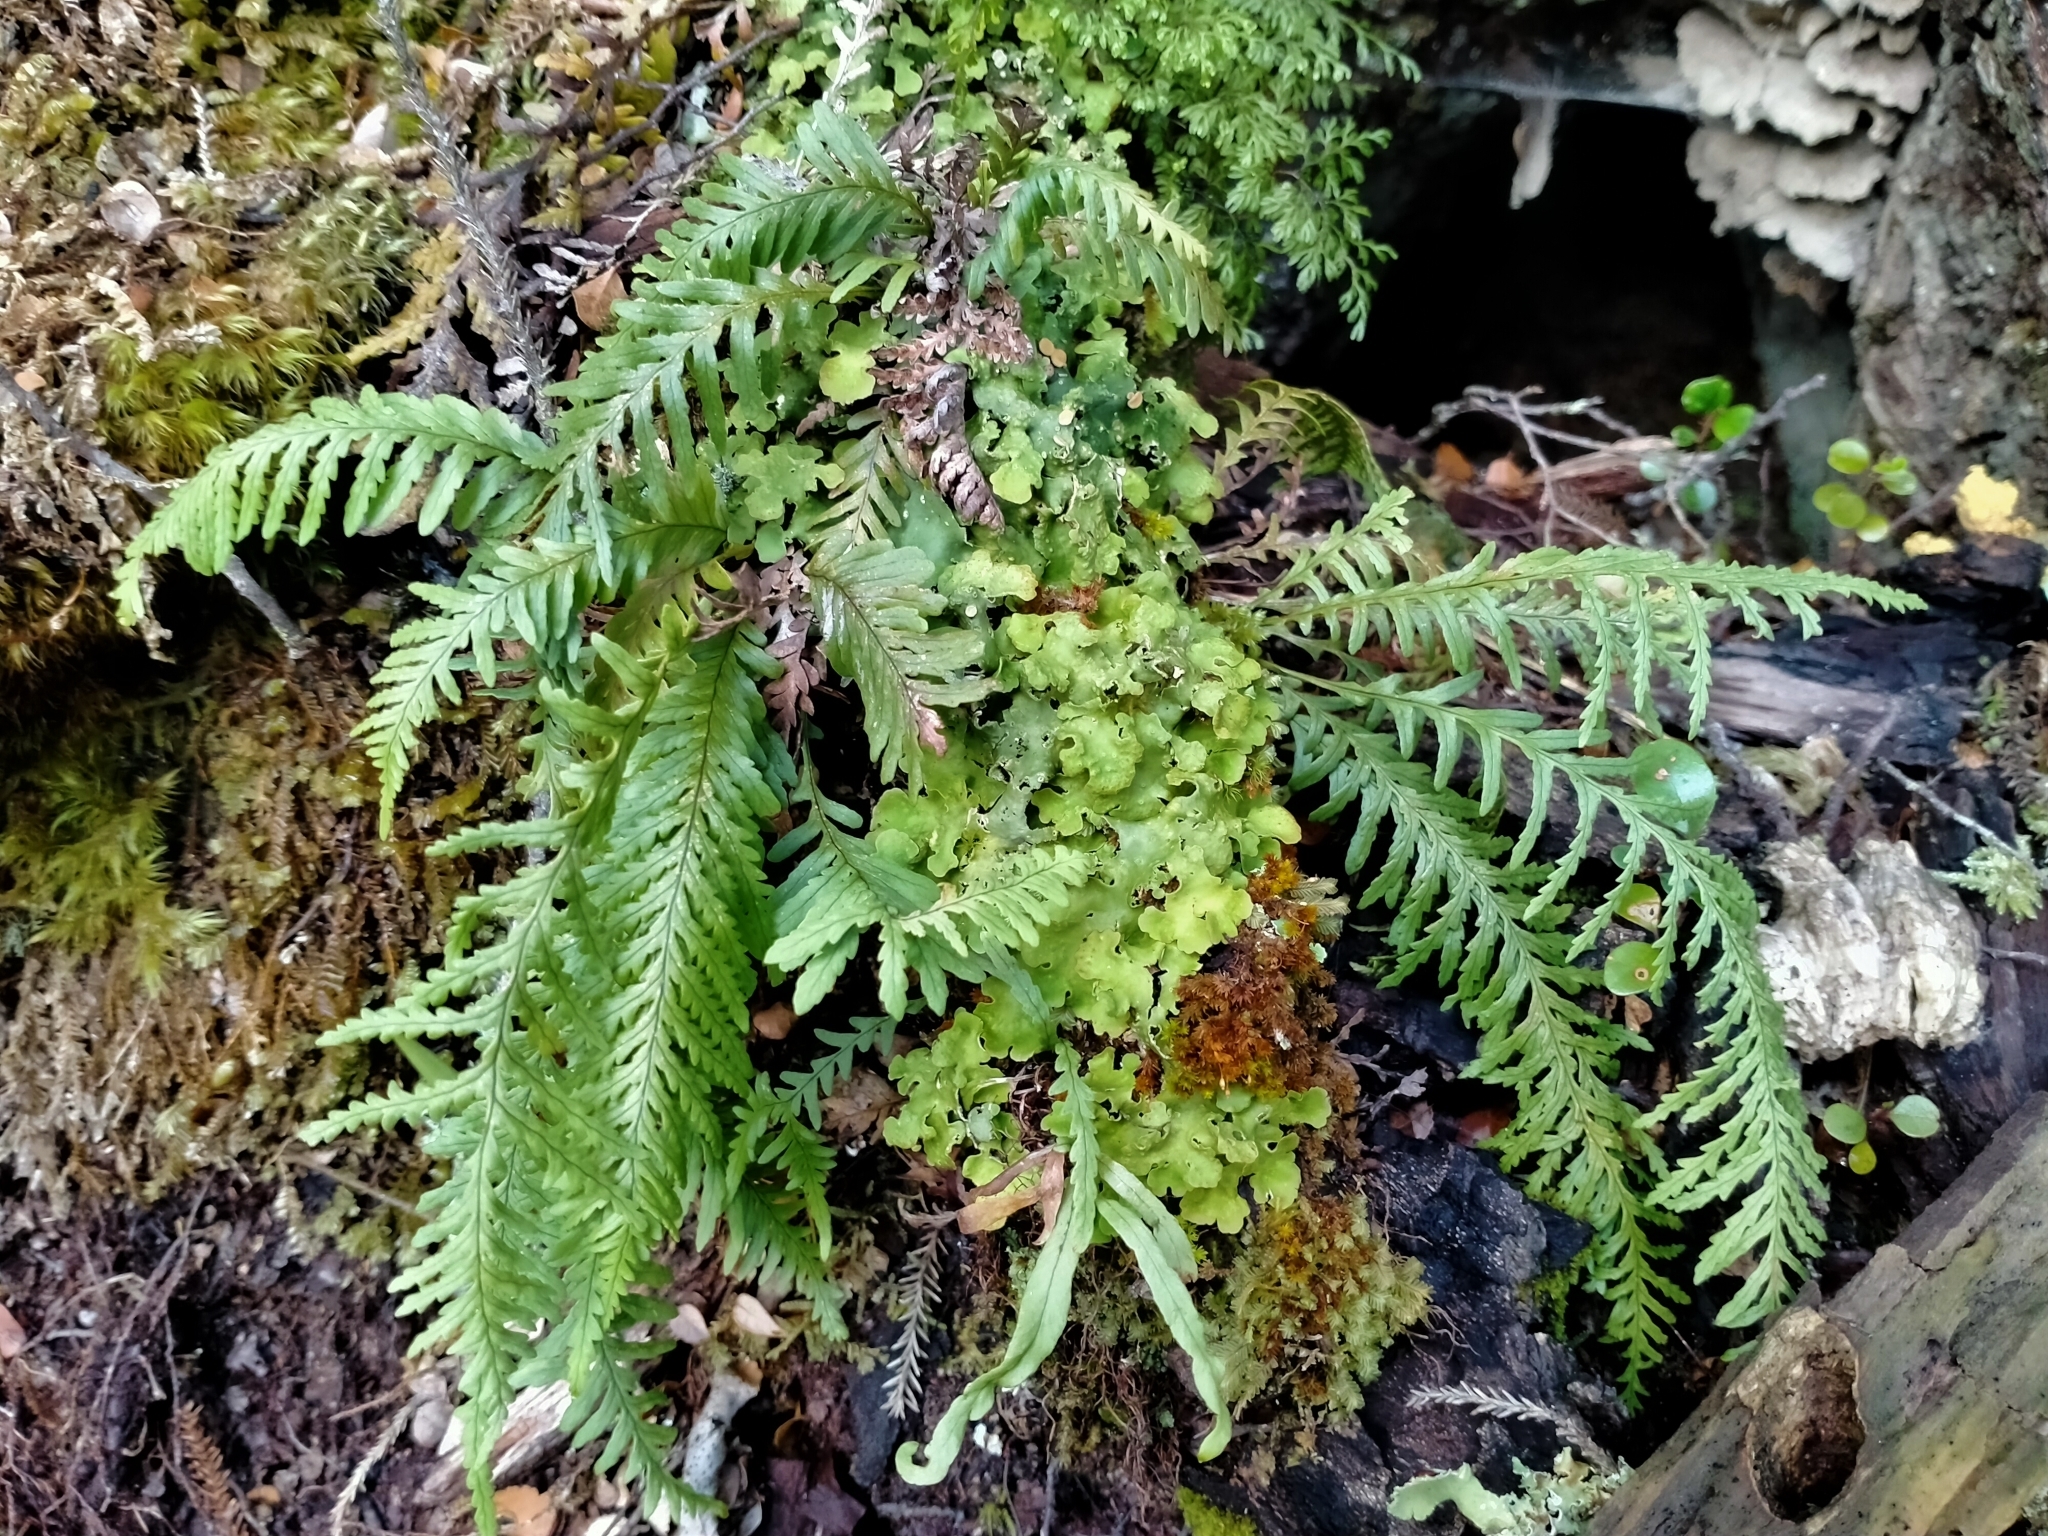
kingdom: Plantae
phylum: Tracheophyta
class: Polypodiopsida
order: Polypodiales
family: Polypodiaceae
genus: Notogrammitis
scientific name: Notogrammitis heterophylla
